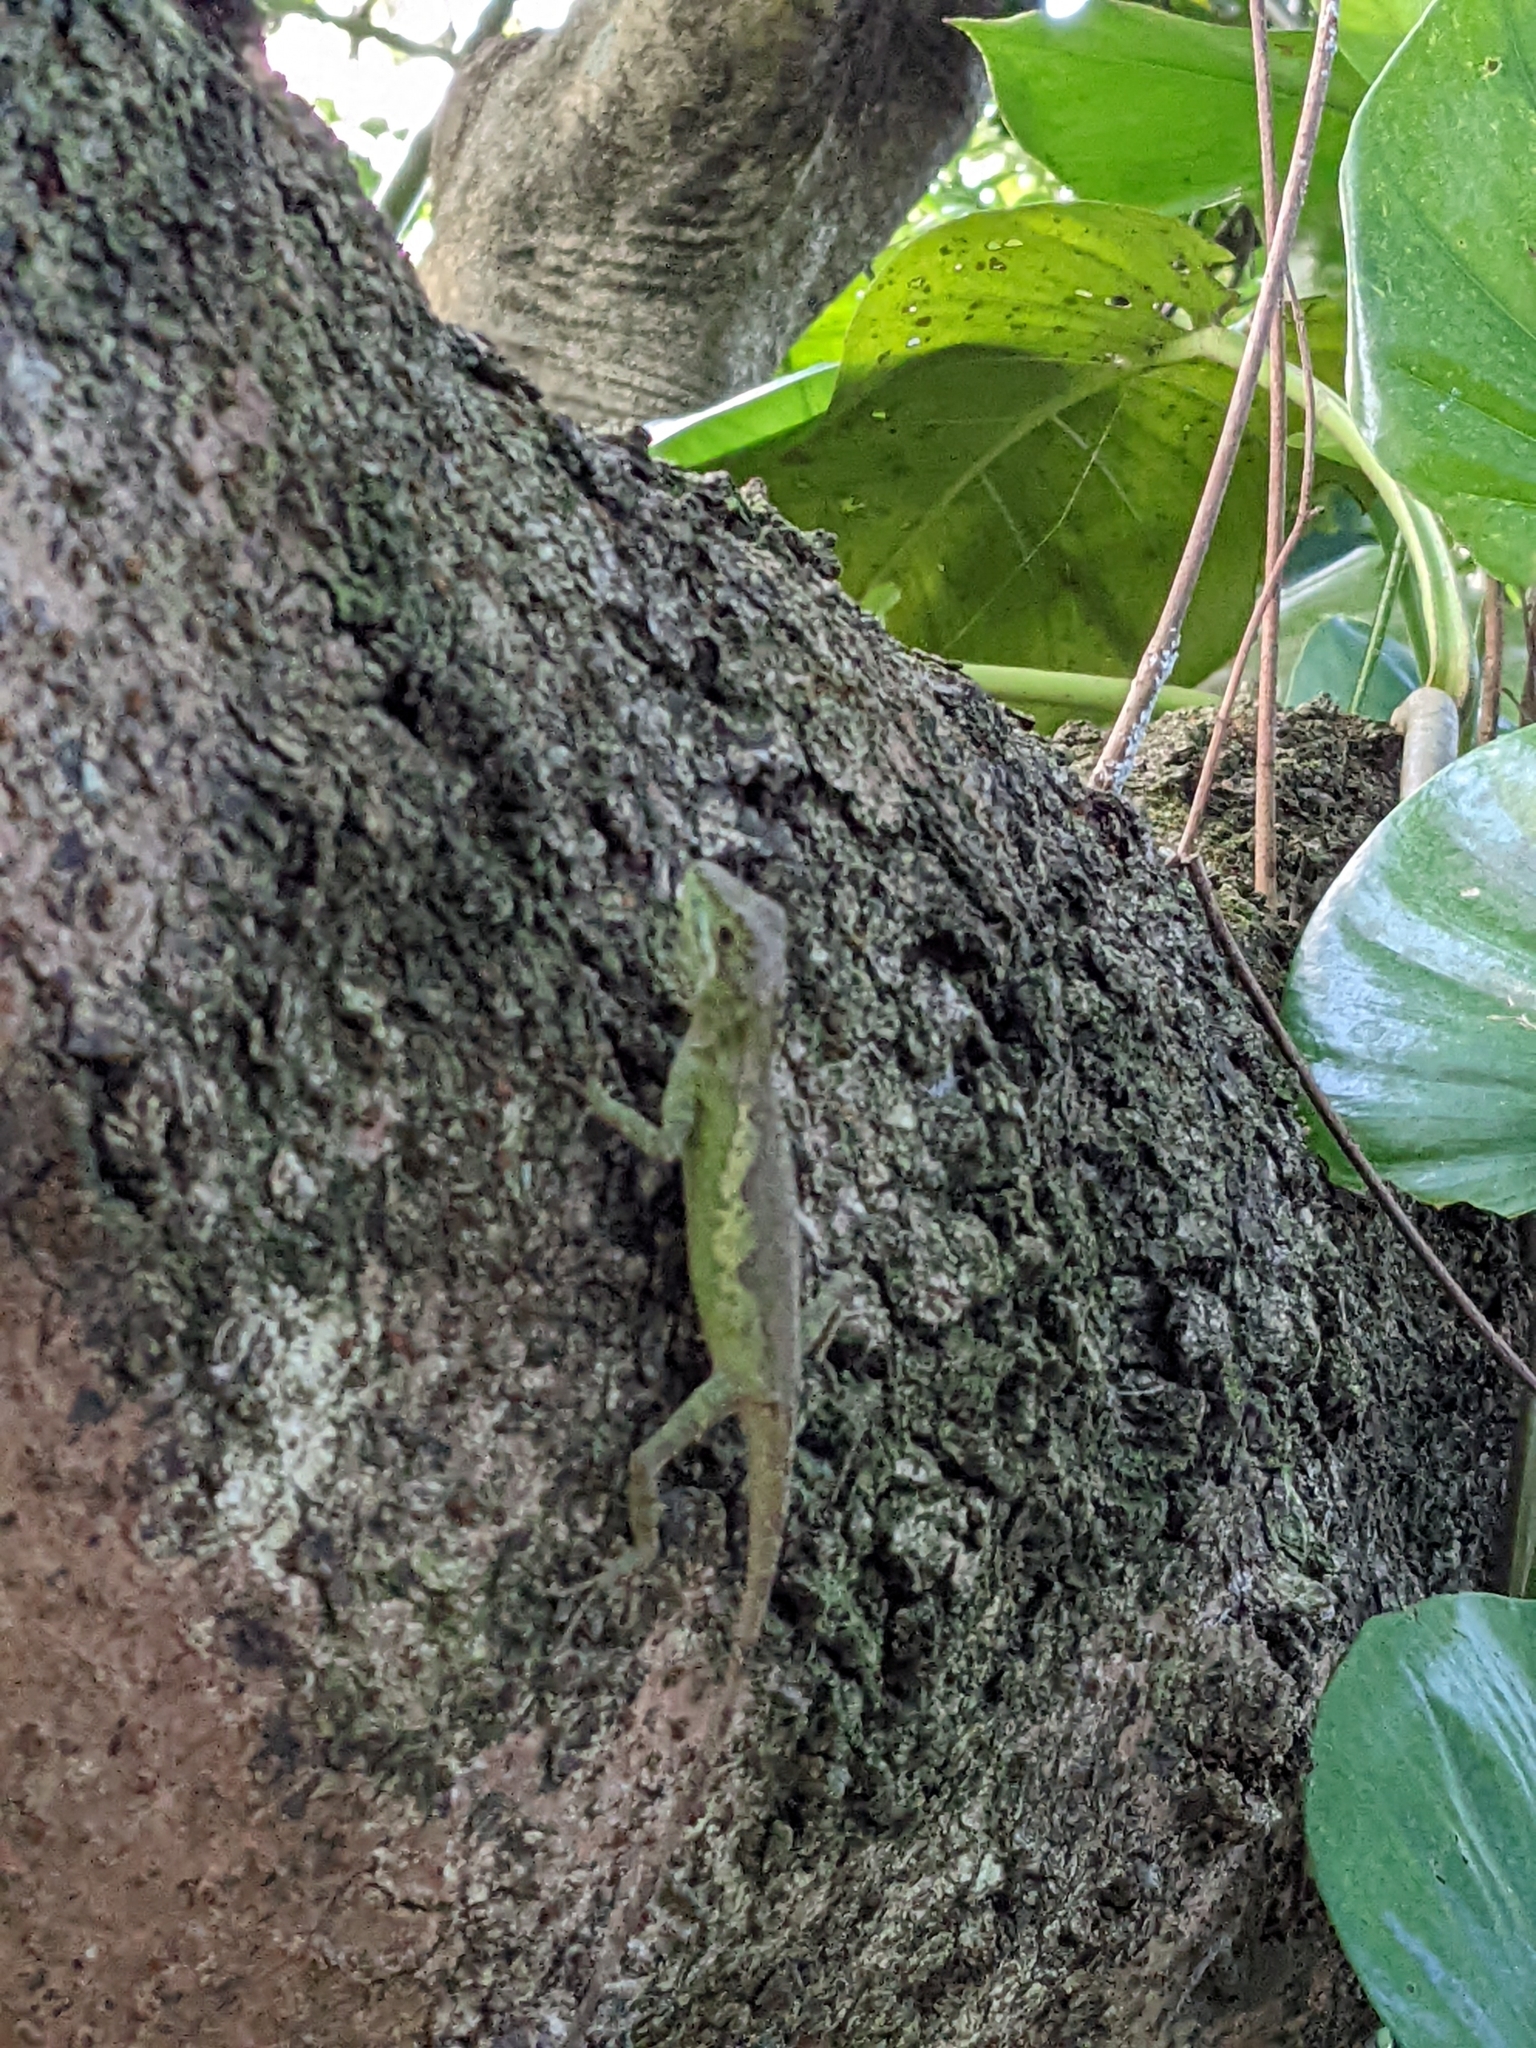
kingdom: Fungi
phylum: Basidiomycota
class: Agaricomycetes
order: Boletales
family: Diplocystidiaceae
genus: Diploderma
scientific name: Diploderma polygonatum
